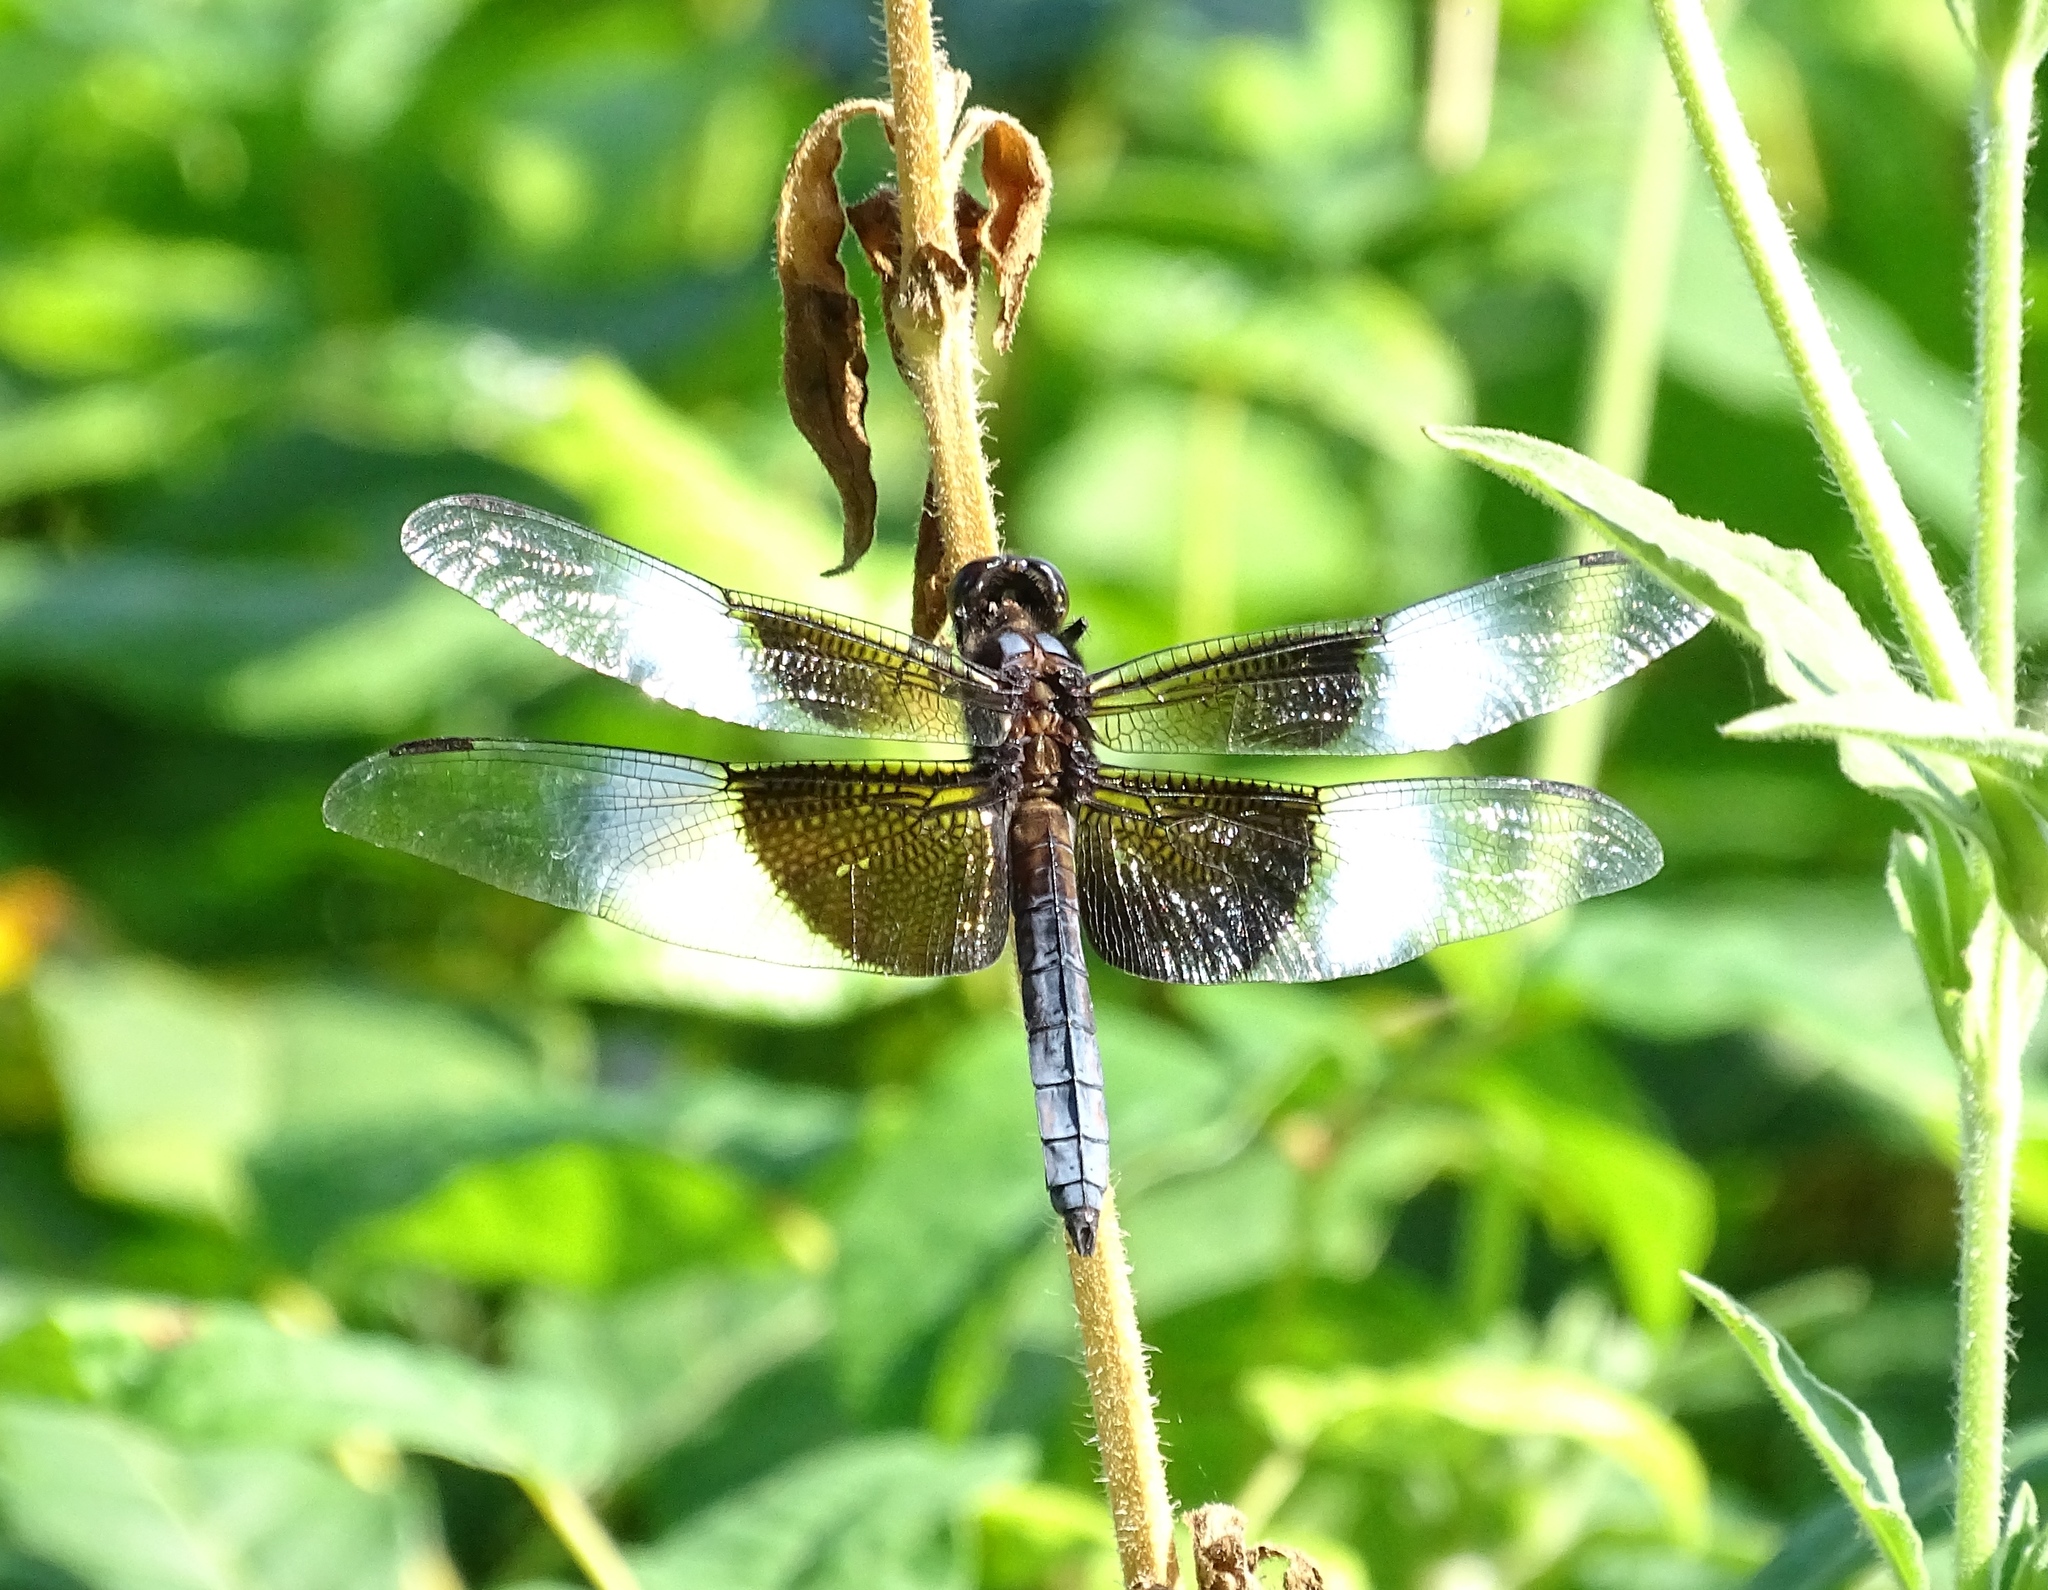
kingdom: Animalia
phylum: Arthropoda
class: Insecta
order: Odonata
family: Libellulidae
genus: Libellula
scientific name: Libellula luctuosa
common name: Widow skimmer
